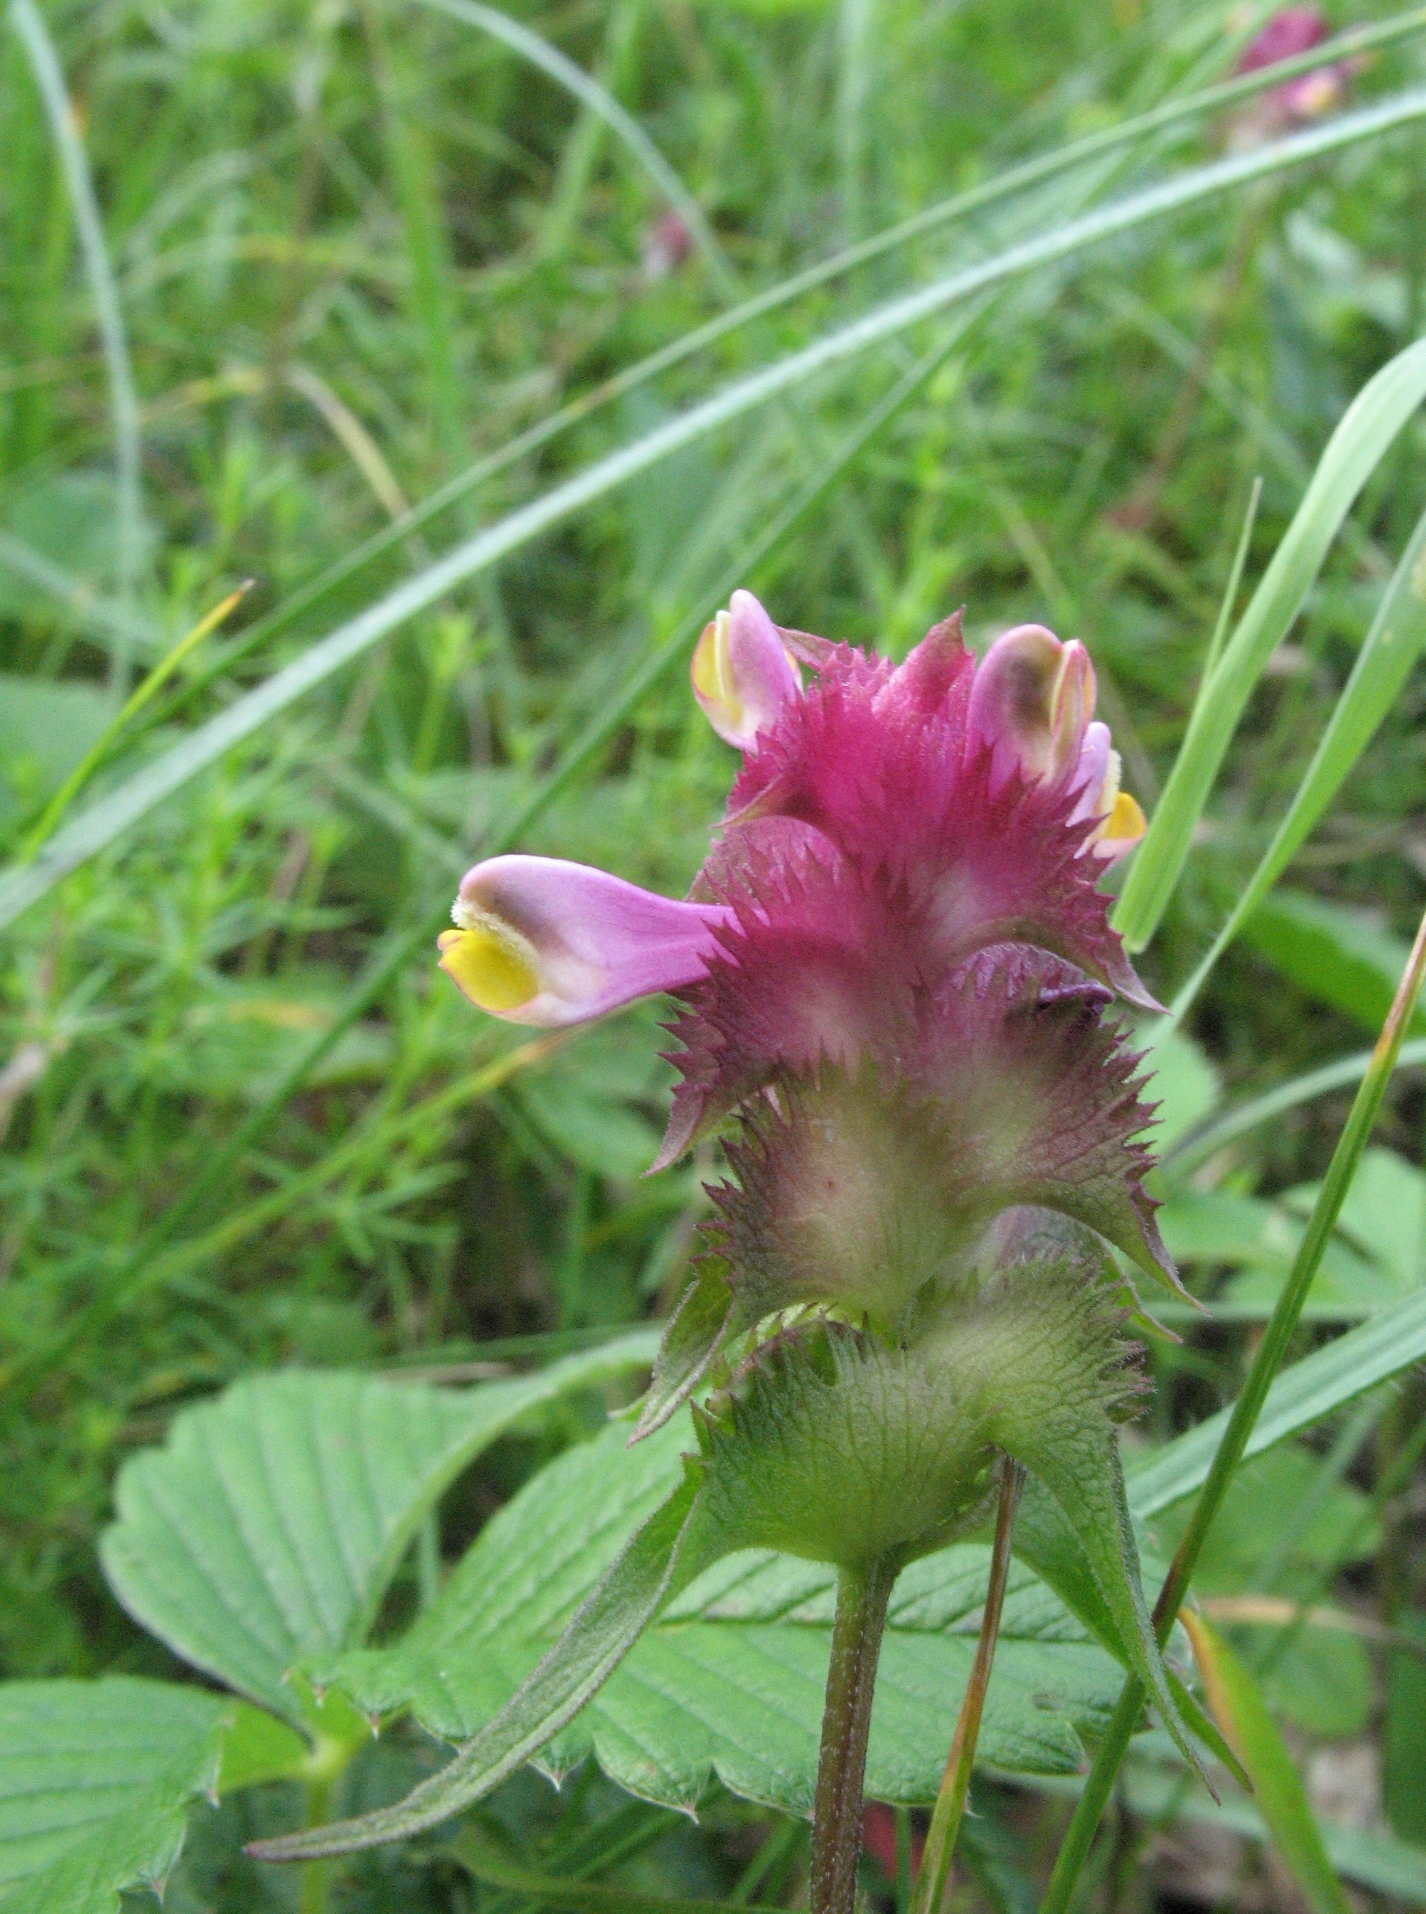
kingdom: Plantae
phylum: Tracheophyta
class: Magnoliopsida
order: Lamiales
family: Orobanchaceae
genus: Melampyrum
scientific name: Melampyrum cristatum
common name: Crested cow-wheat
